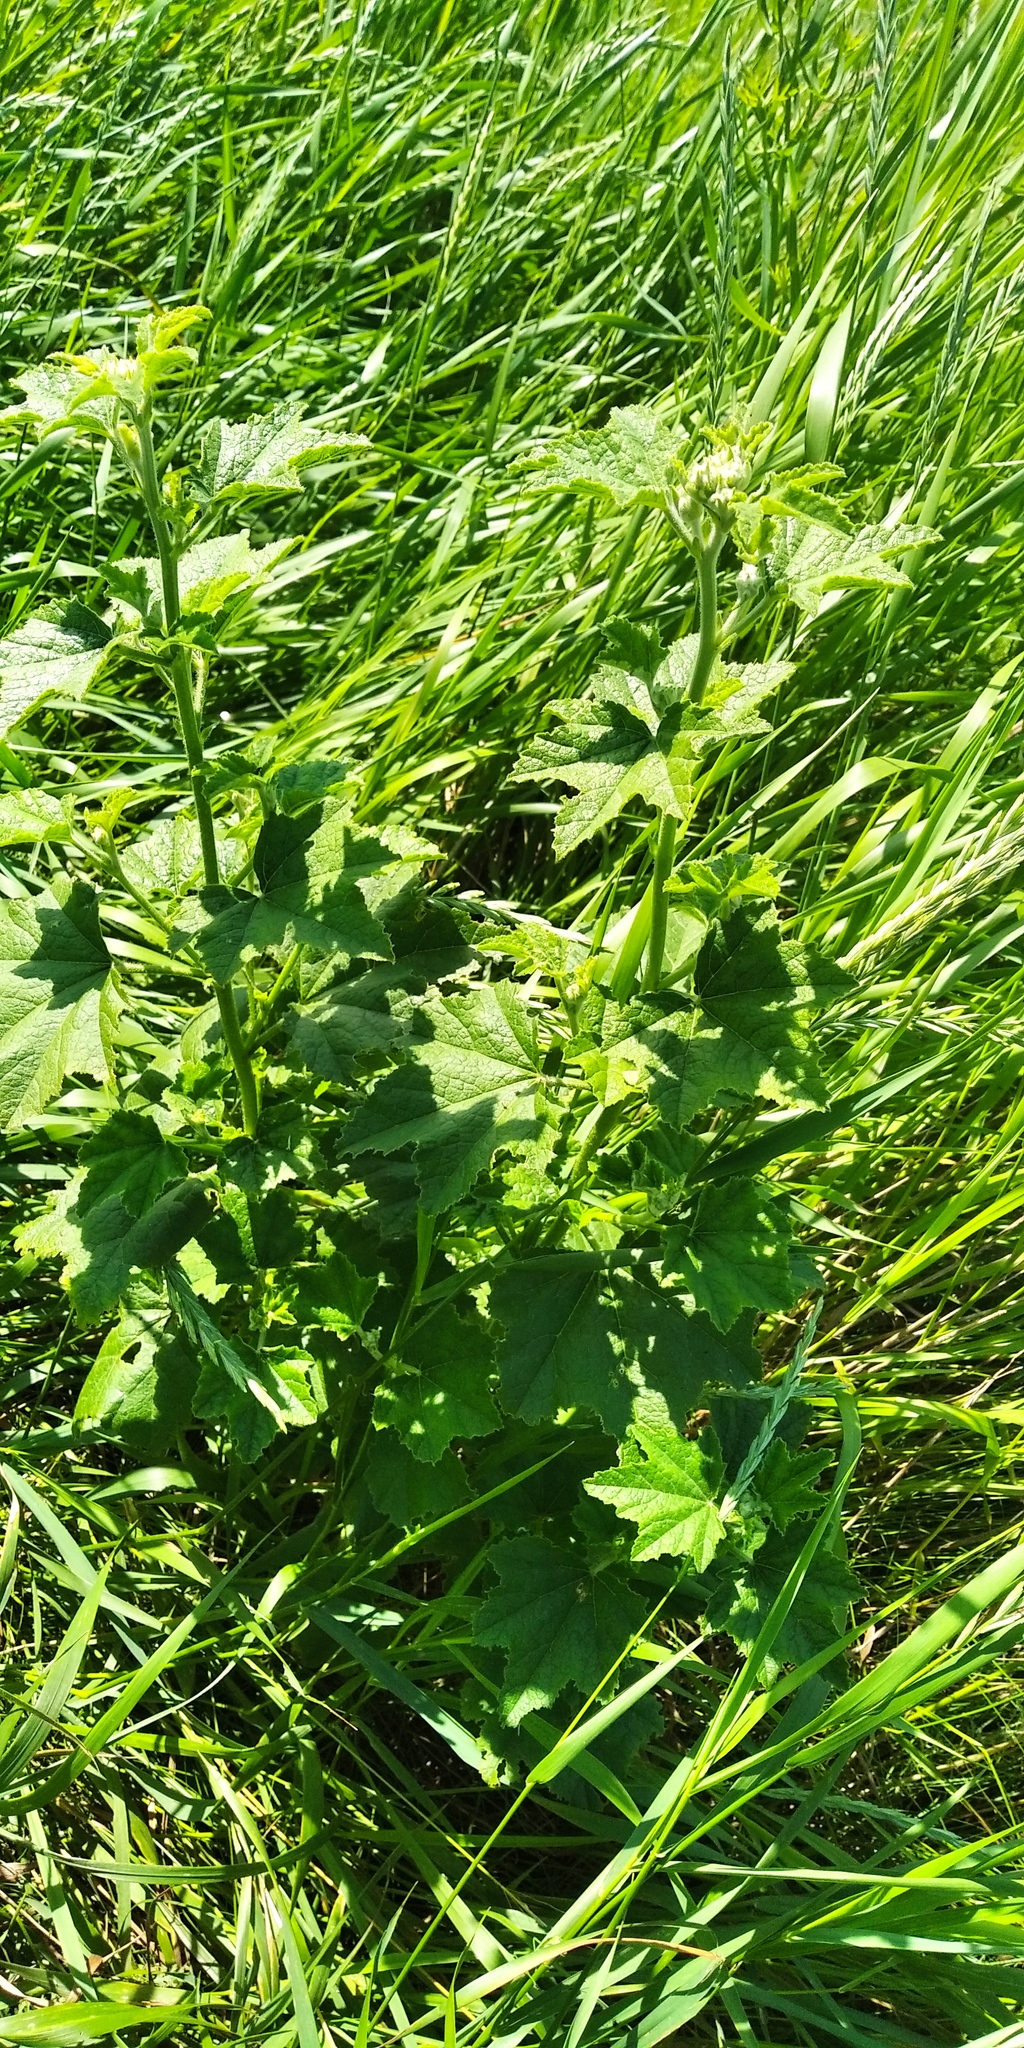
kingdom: Plantae
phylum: Tracheophyta
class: Magnoliopsida
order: Malvales
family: Malvaceae
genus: Malva
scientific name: Malva thuringiaca
